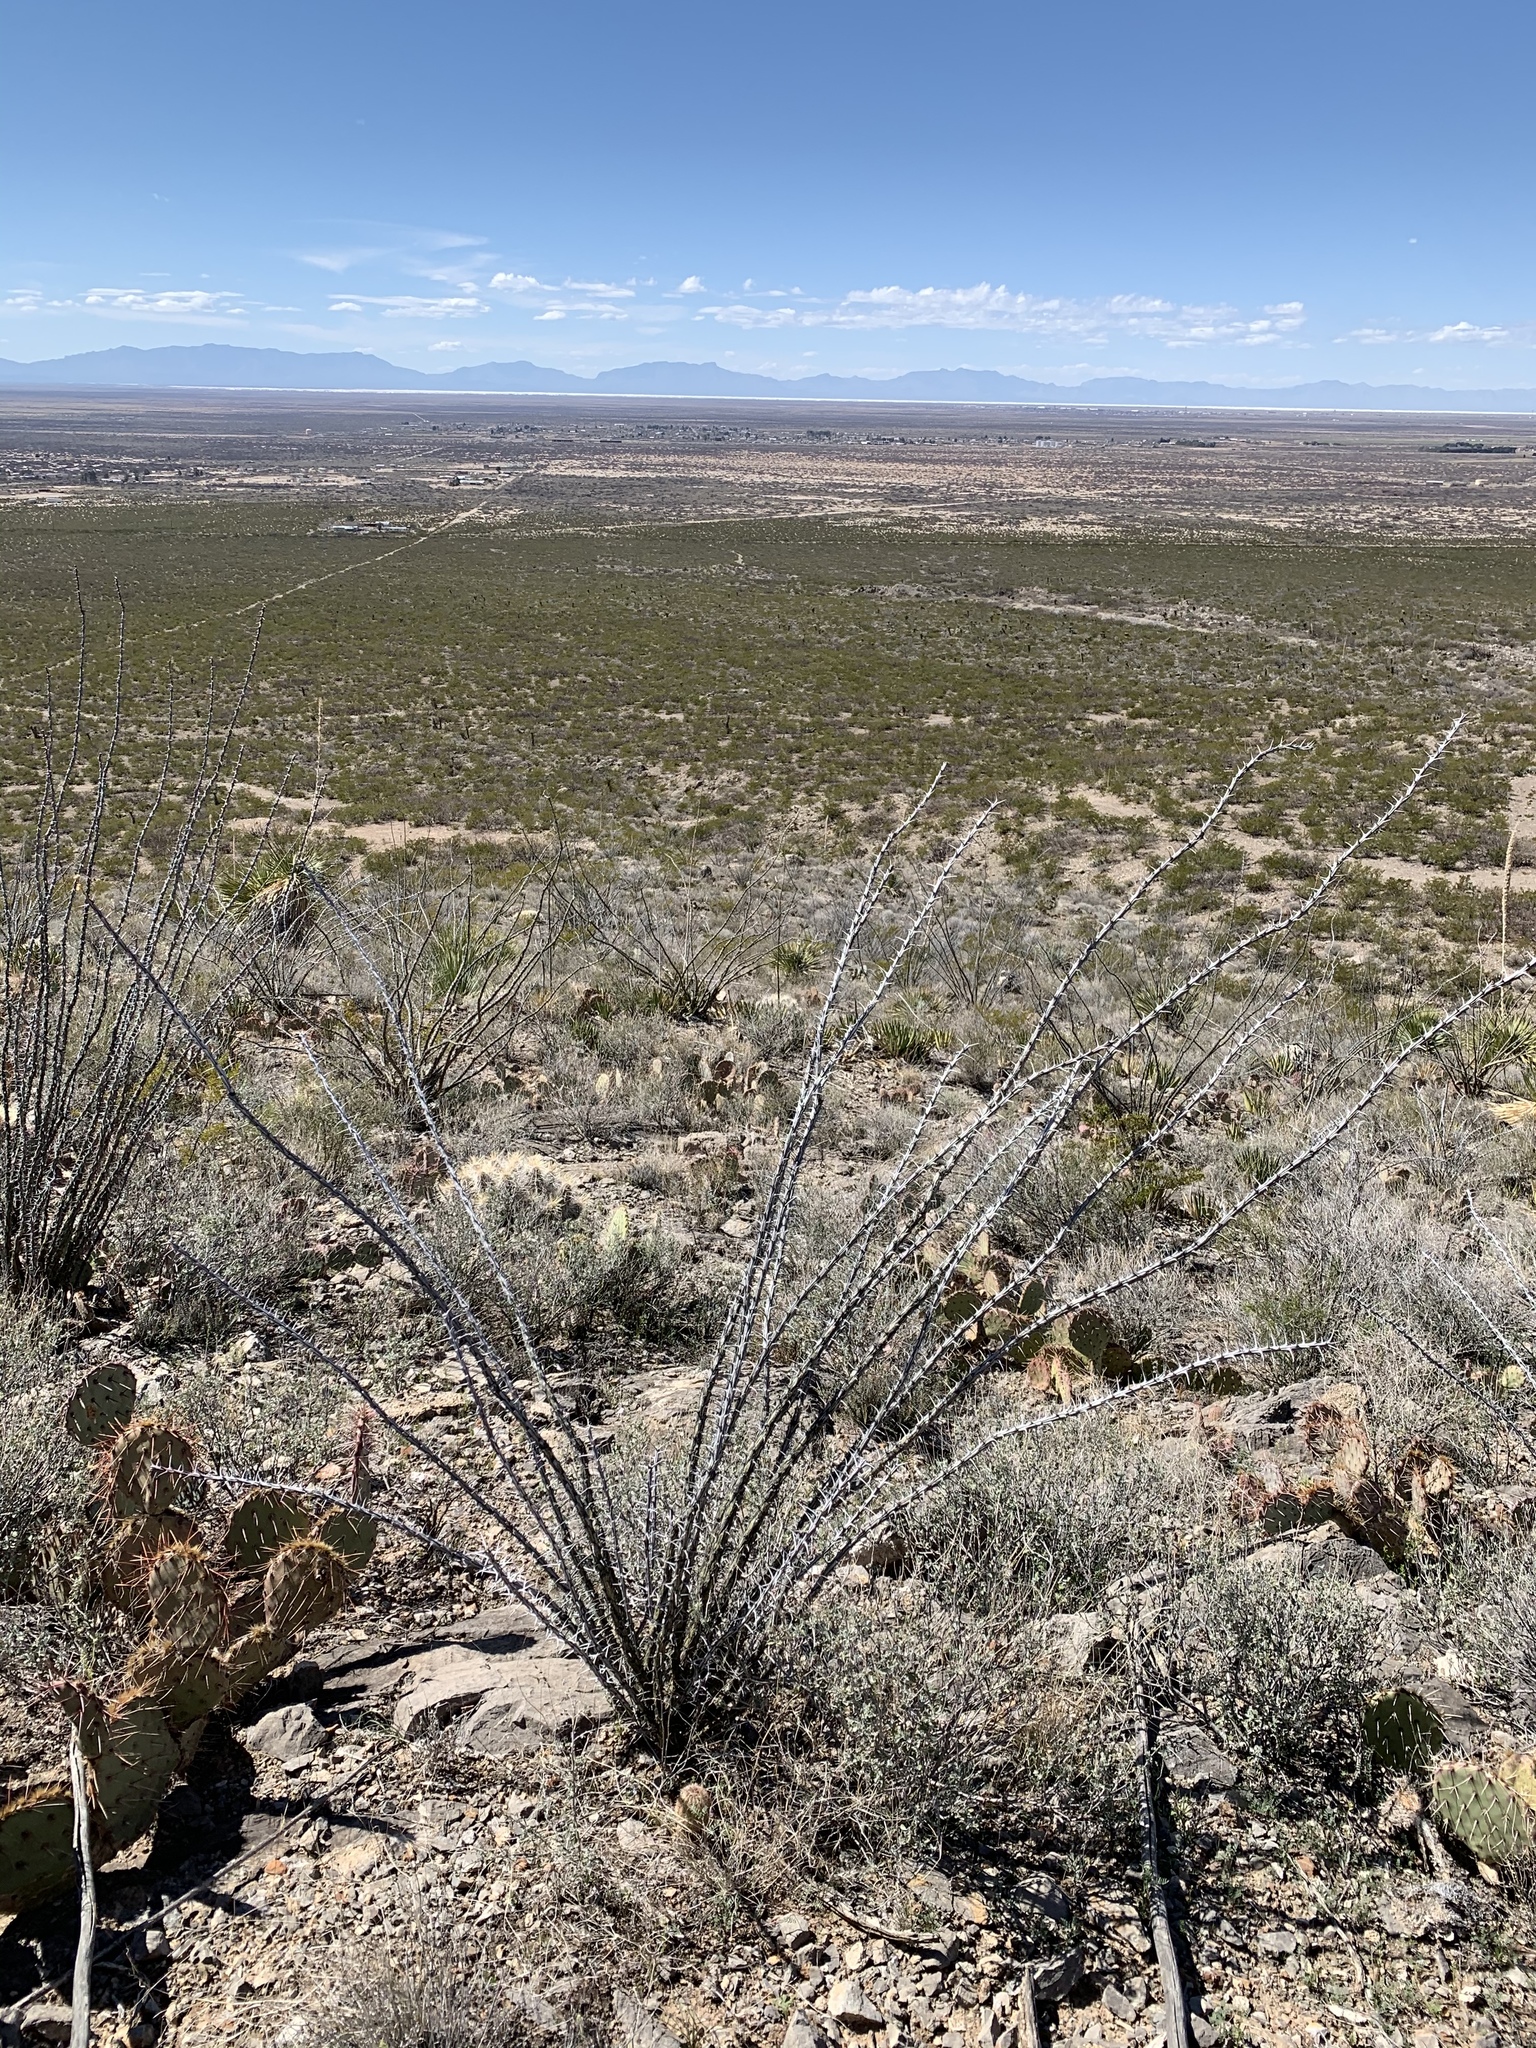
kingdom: Plantae
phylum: Tracheophyta
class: Magnoliopsida
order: Ericales
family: Fouquieriaceae
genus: Fouquieria
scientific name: Fouquieria splendens
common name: Vine-cactus
